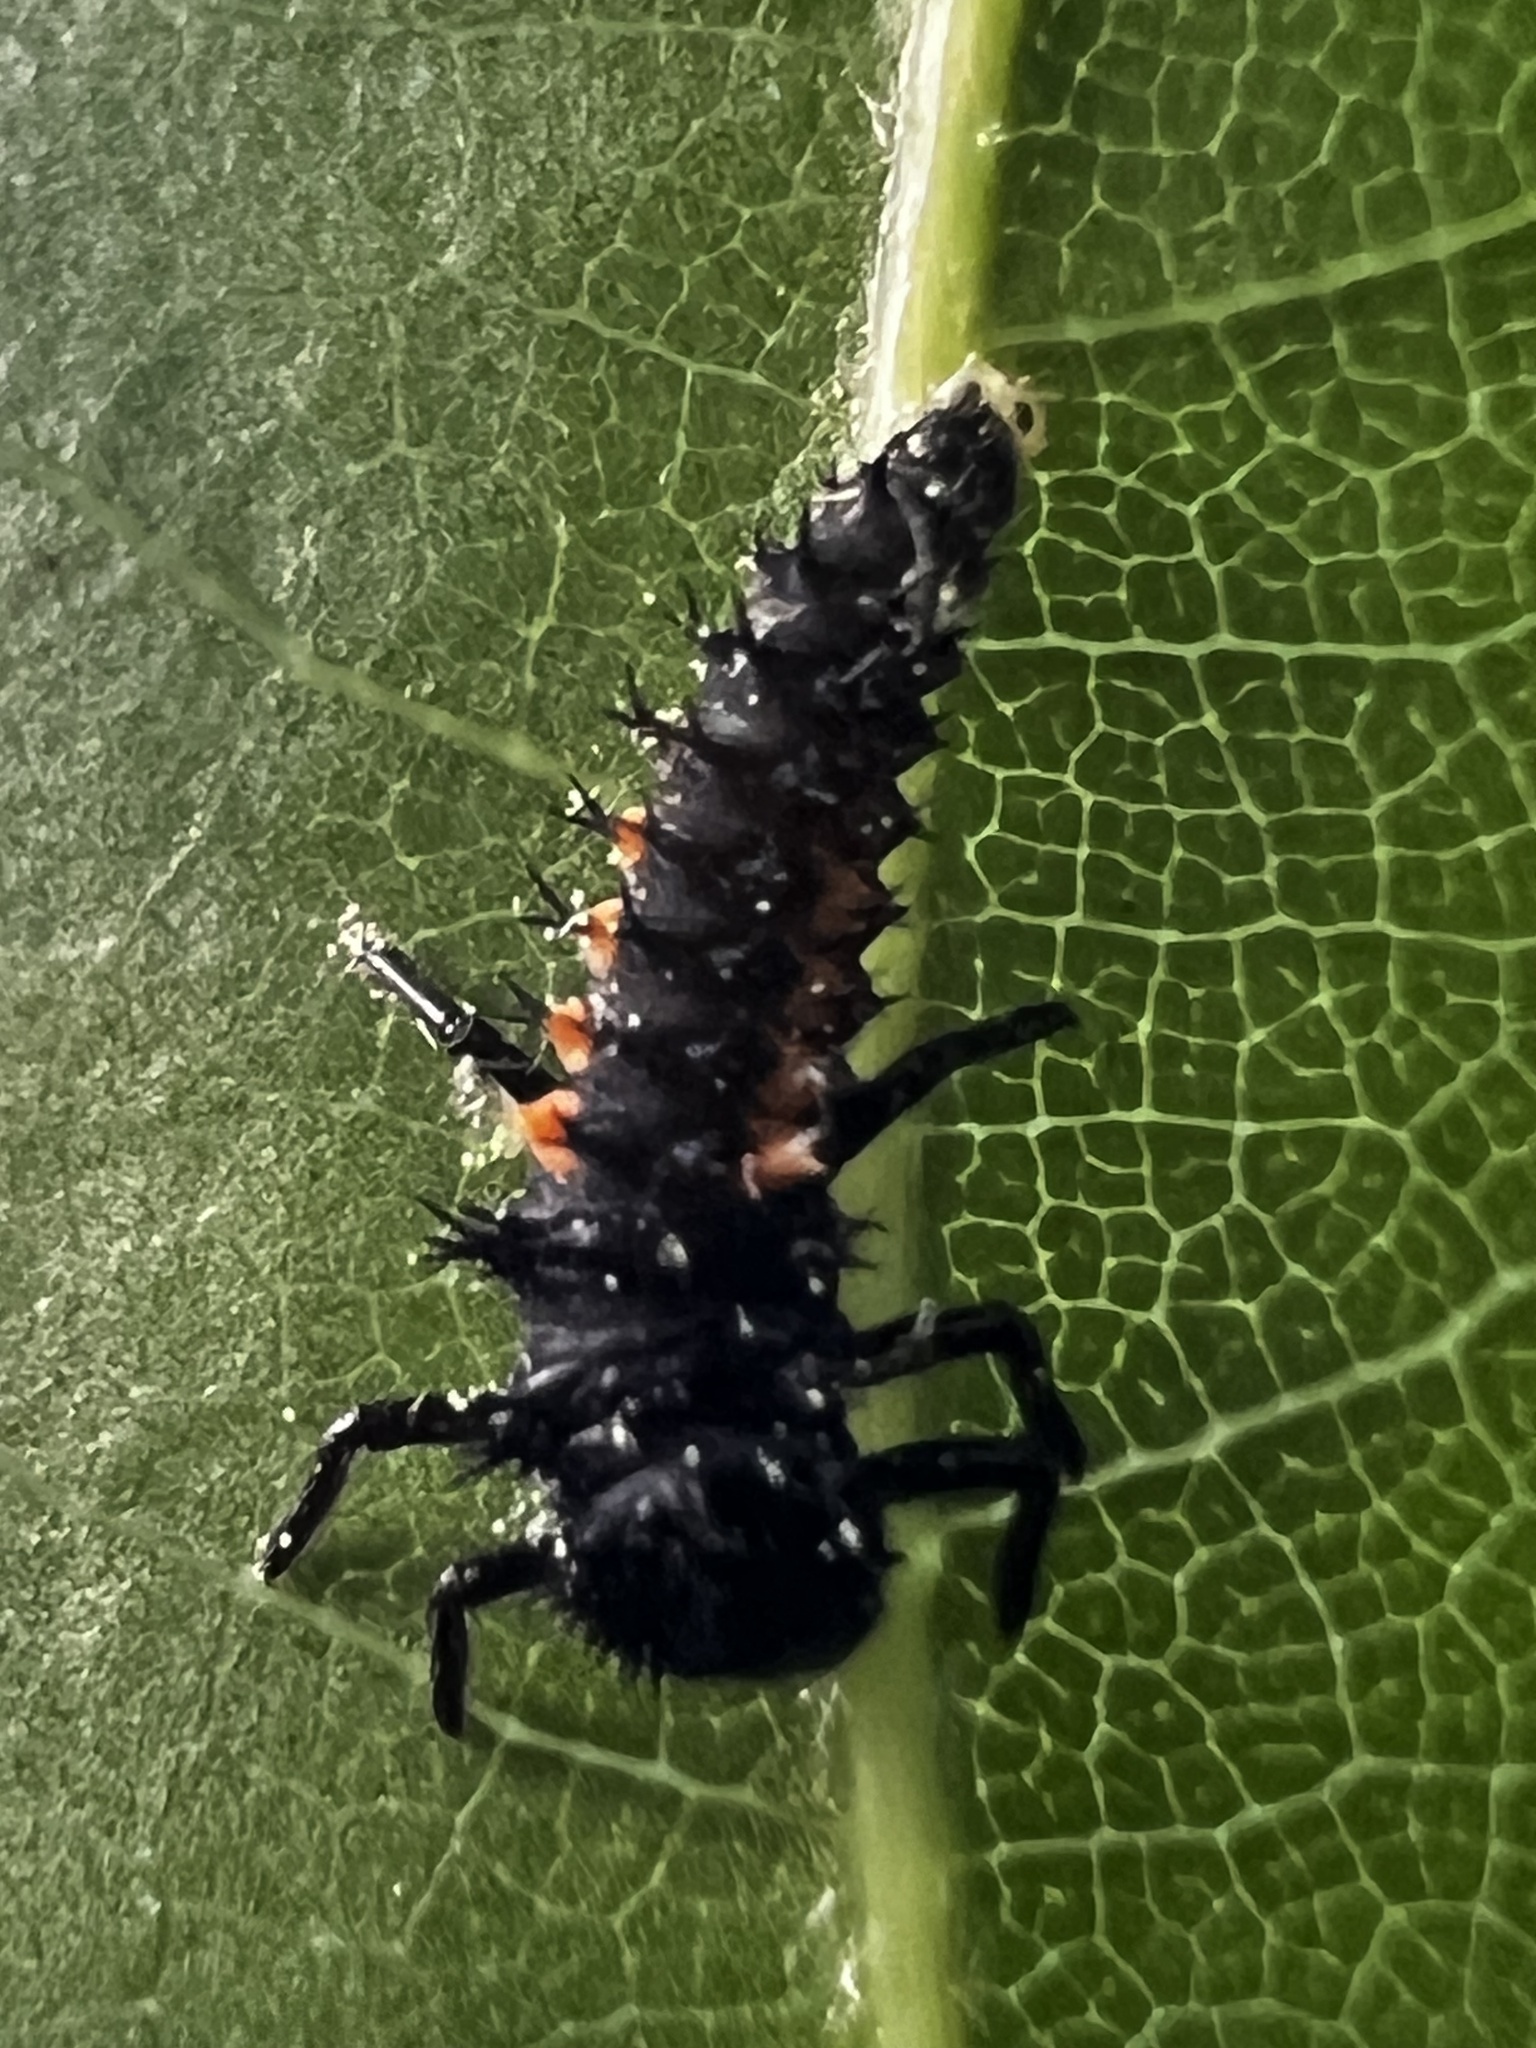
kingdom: Animalia
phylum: Arthropoda
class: Insecta
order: Coleoptera
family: Coccinellidae
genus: Harmonia
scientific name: Harmonia axyridis
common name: Harlequin ladybird
